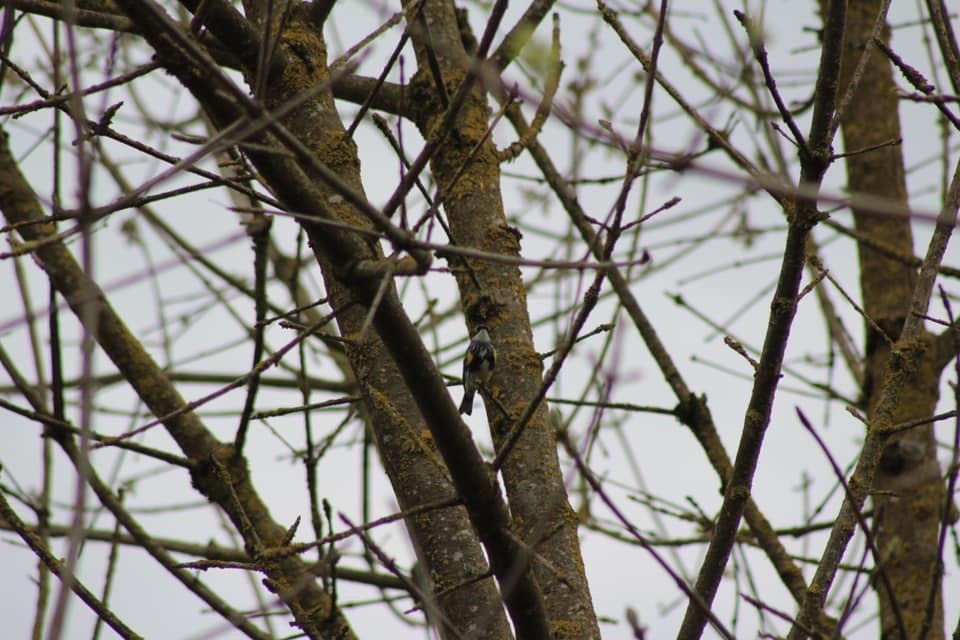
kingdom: Animalia
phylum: Chordata
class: Aves
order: Passeriformes
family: Parulidae
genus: Setophaga
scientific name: Setophaga coronata
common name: Myrtle warbler
